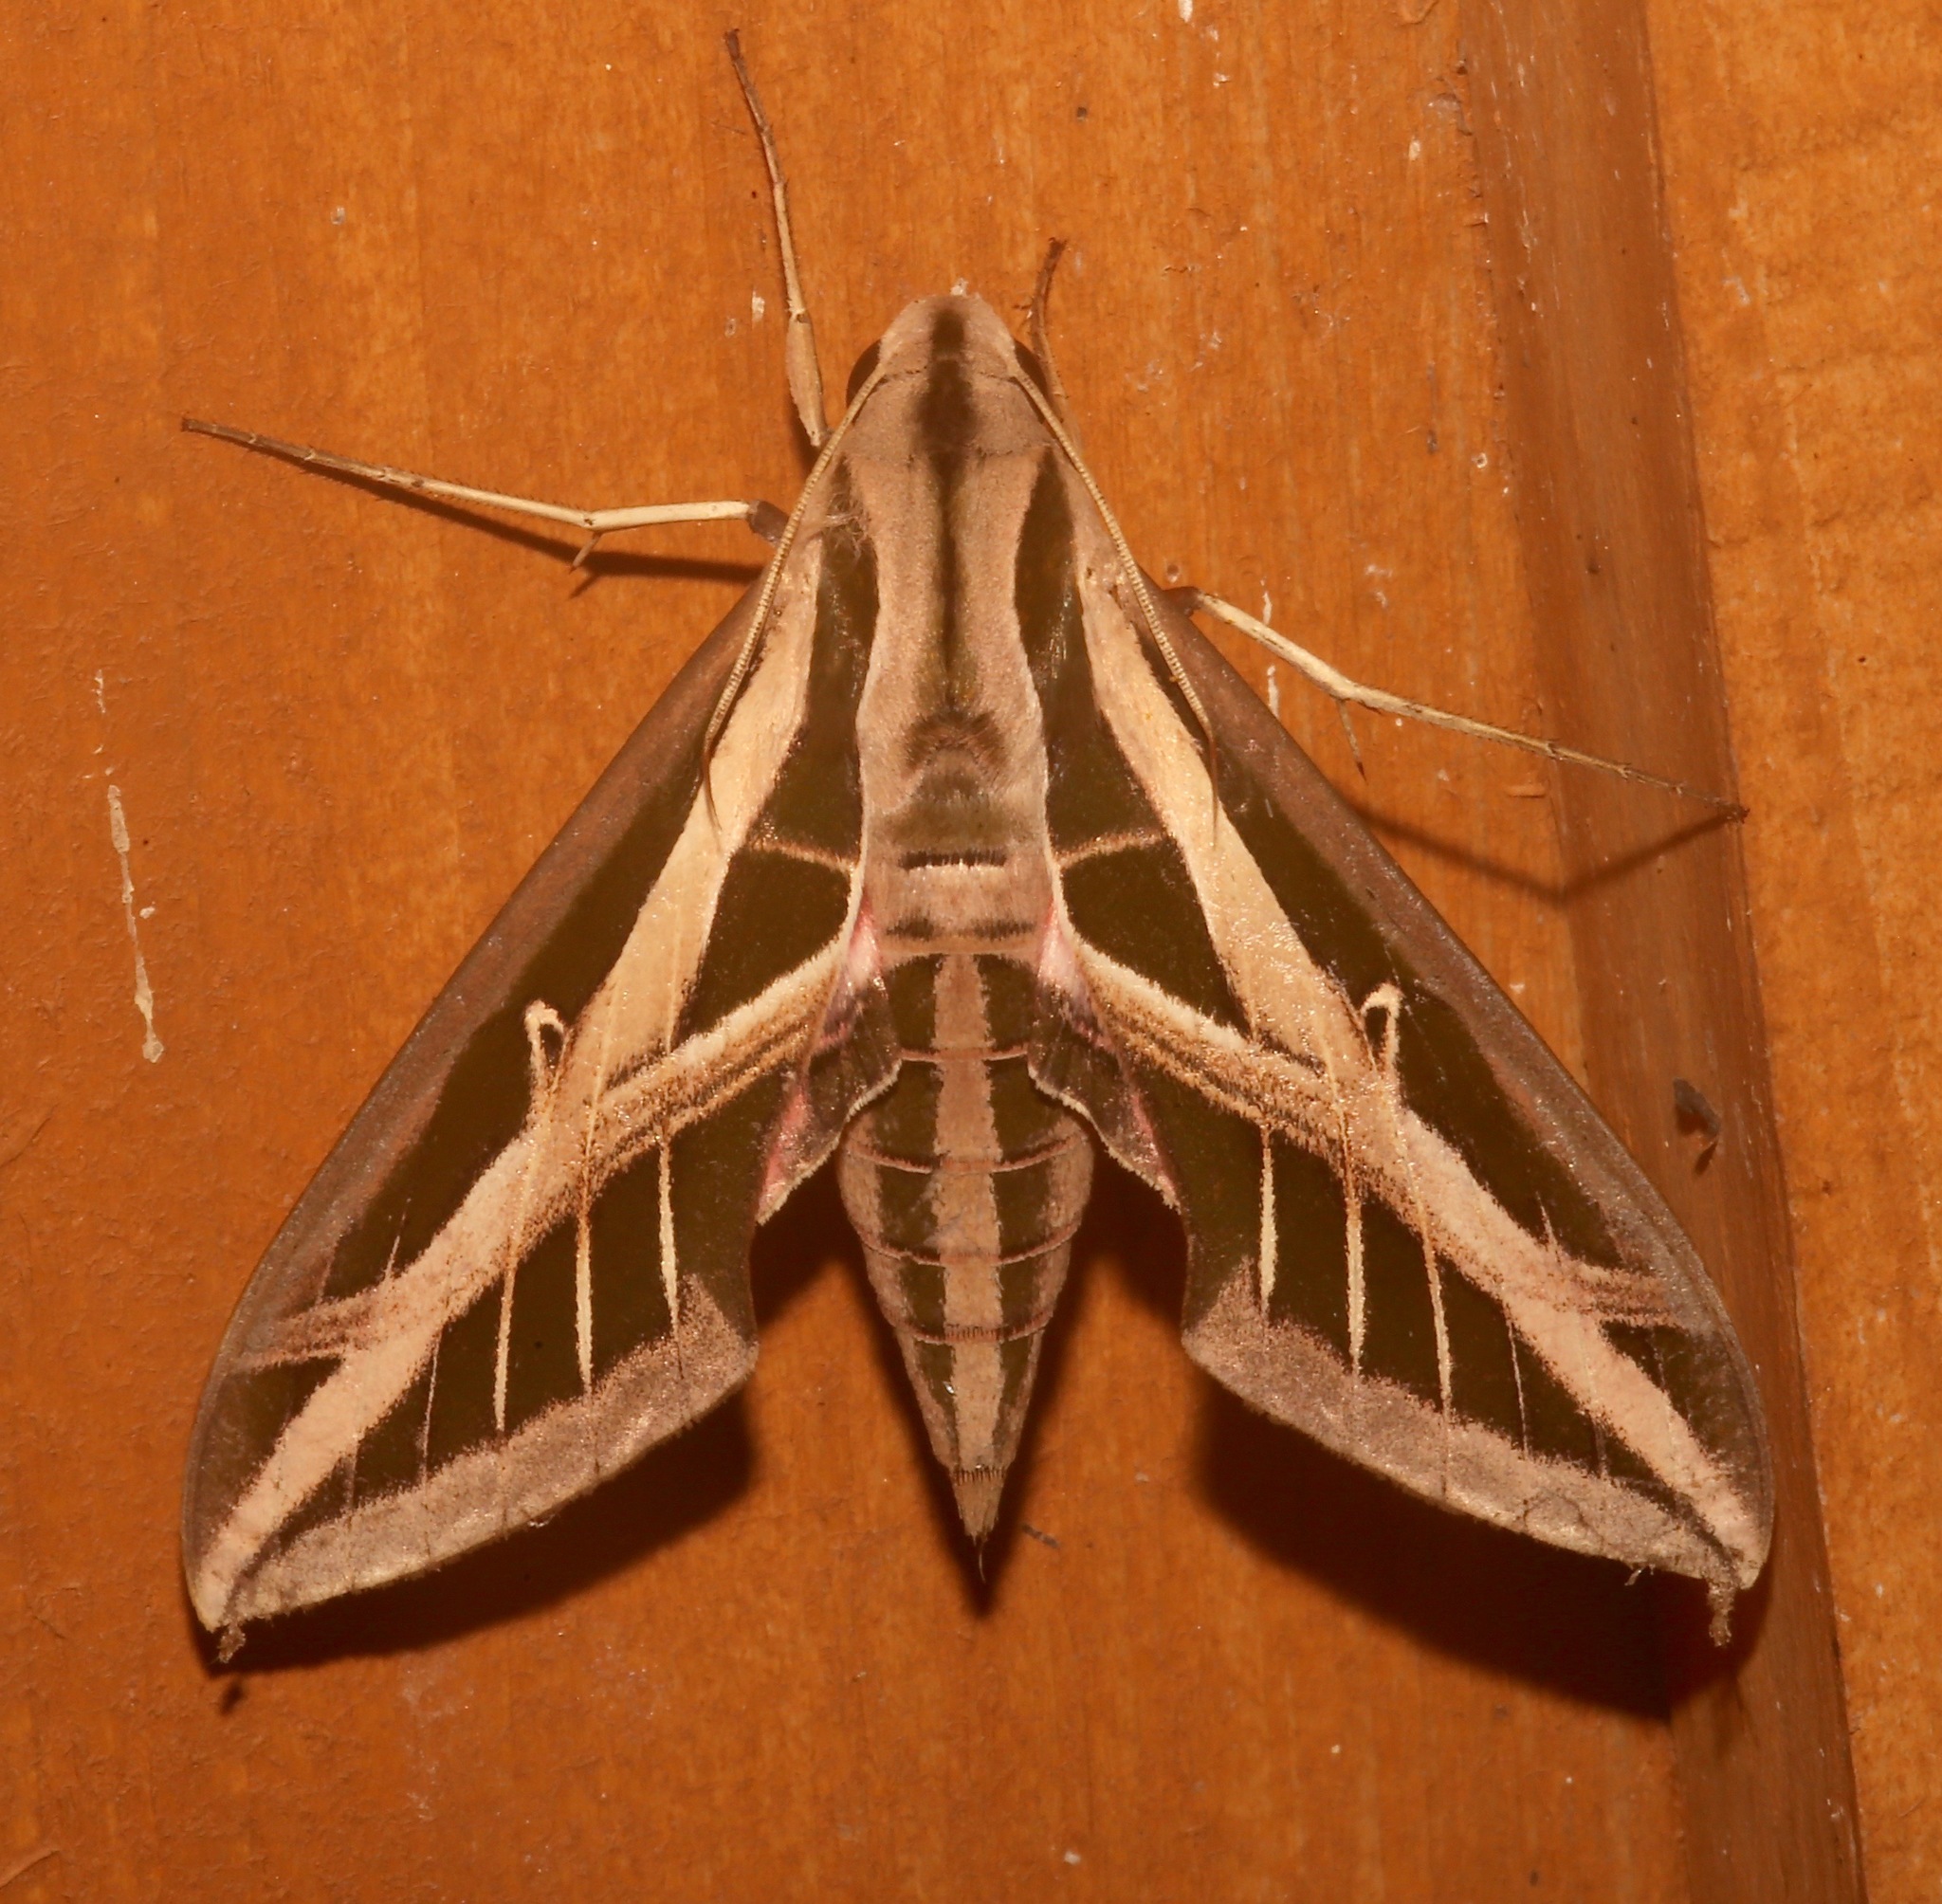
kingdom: Animalia
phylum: Arthropoda
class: Insecta
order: Lepidoptera
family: Sphingidae
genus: Eumorpha
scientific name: Eumorpha fasciatus
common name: Banded sphinx
